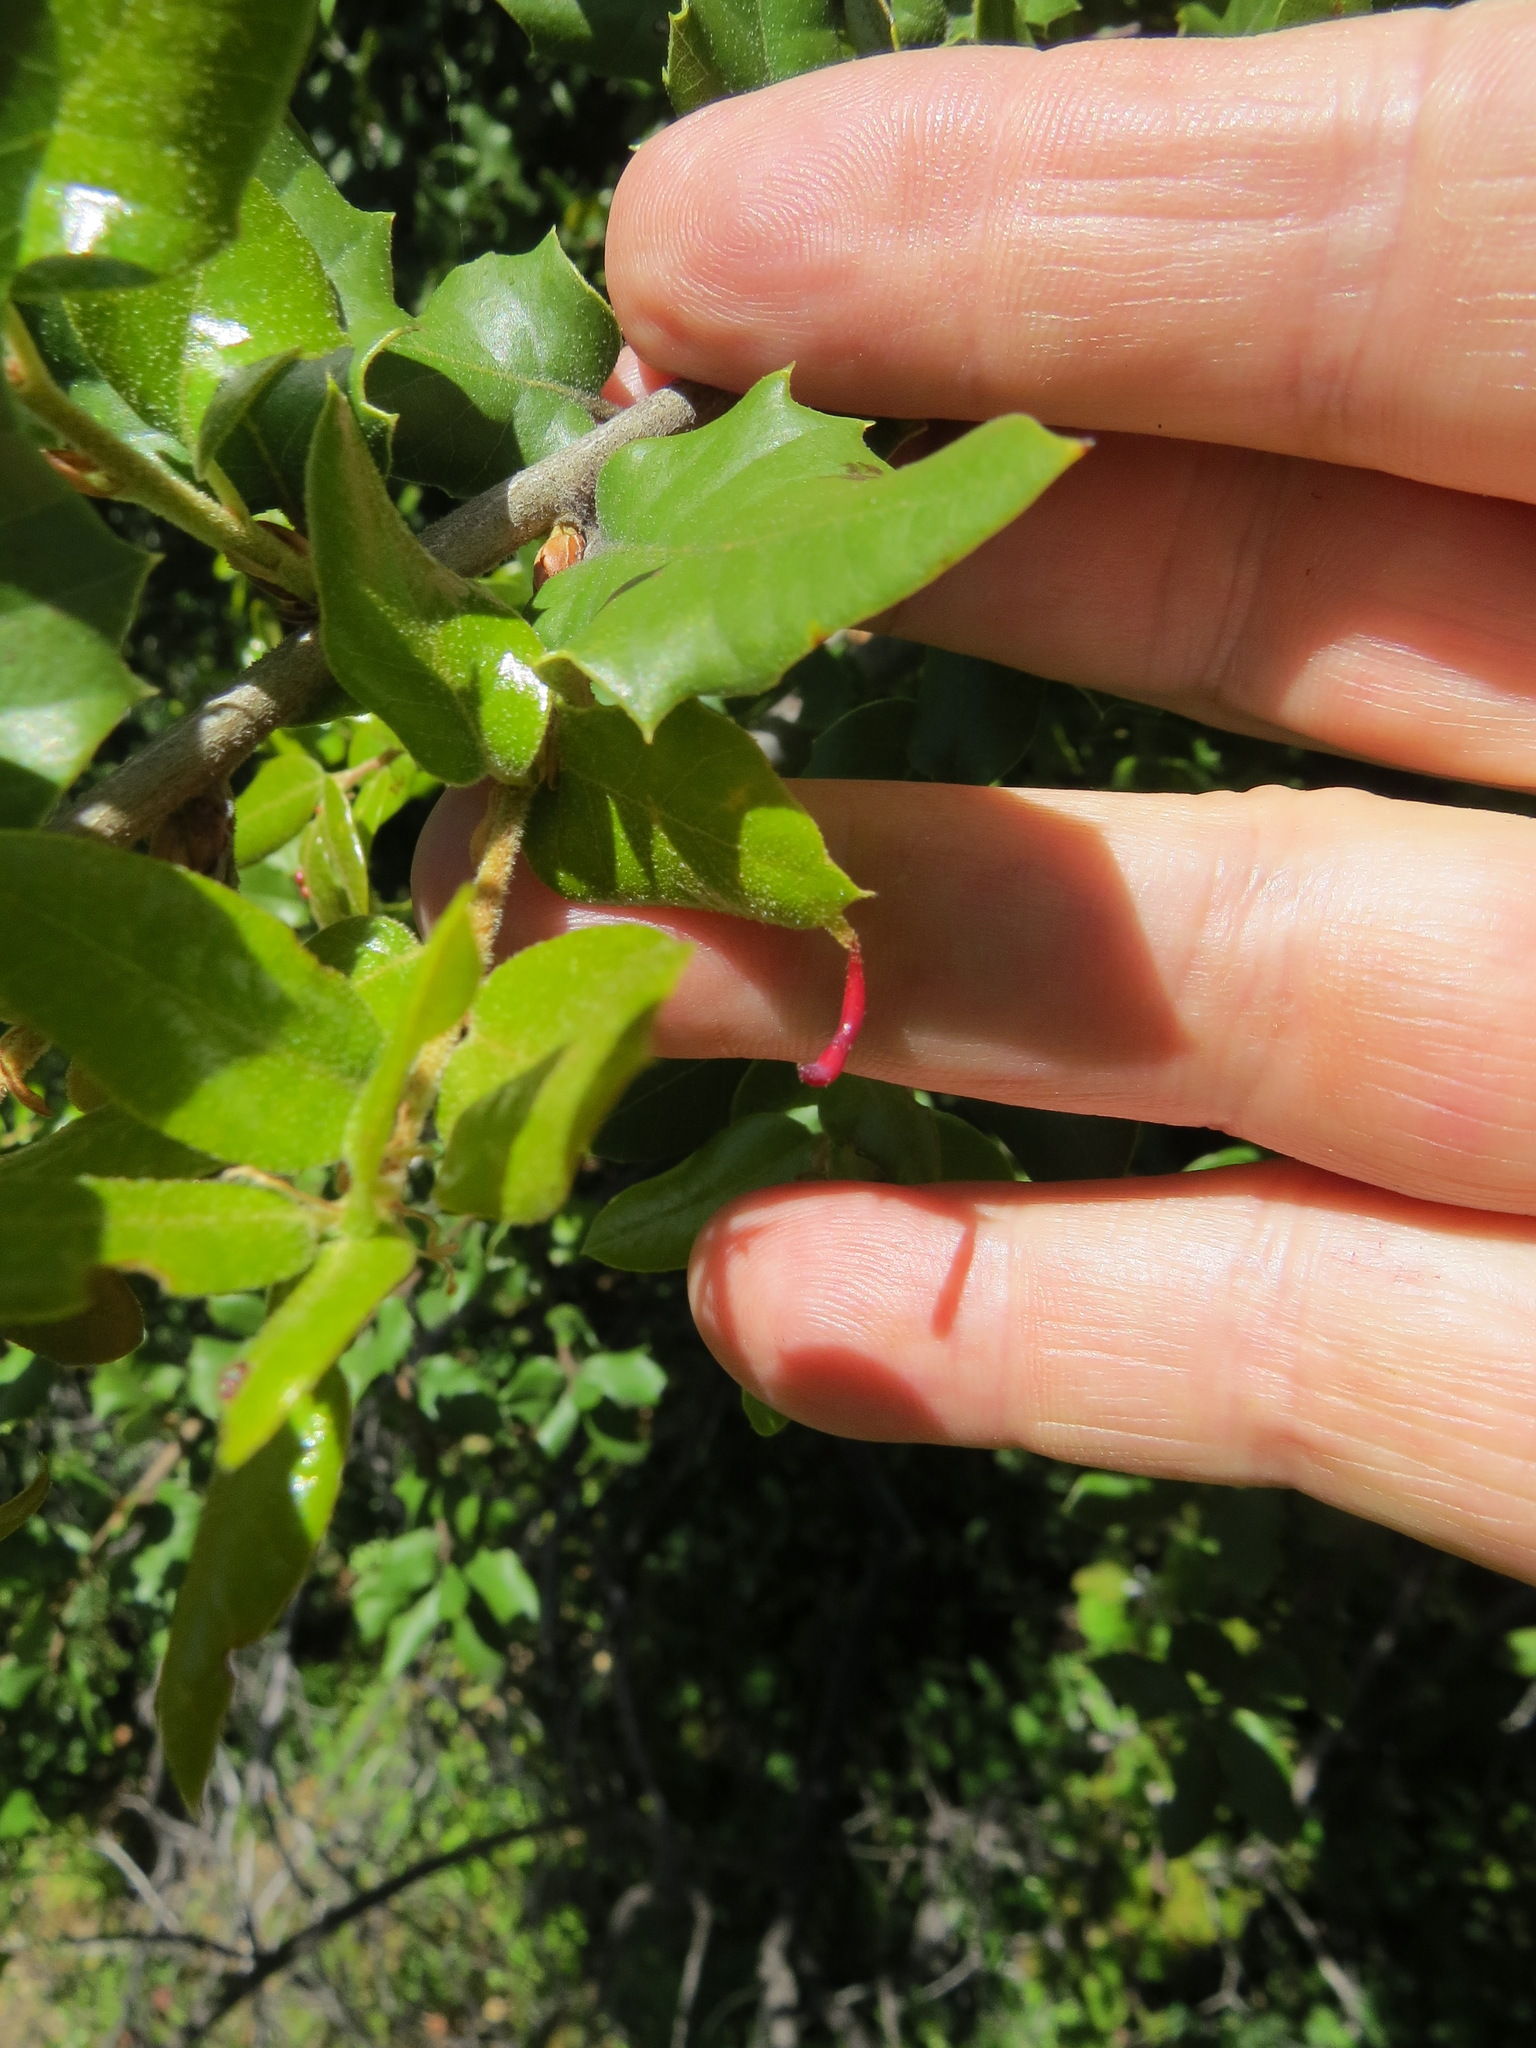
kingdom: Animalia
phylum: Arthropoda
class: Insecta
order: Hymenoptera
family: Cynipidae
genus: Heteroecus
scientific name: Heteroecus
